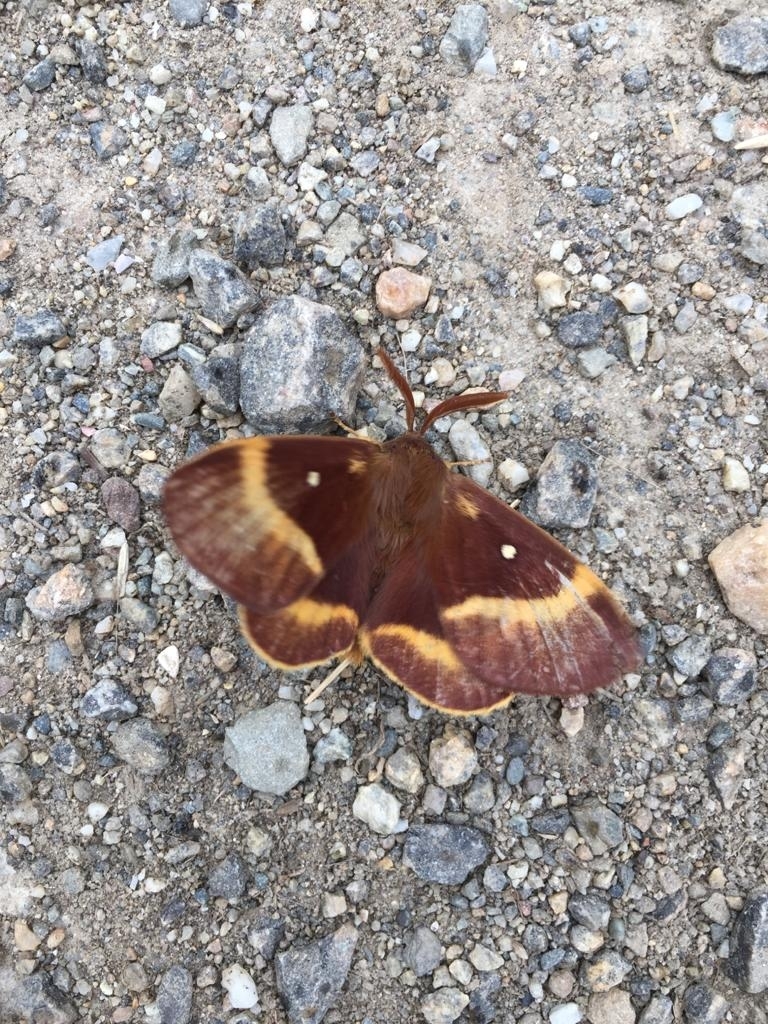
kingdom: Animalia
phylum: Arthropoda
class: Insecta
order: Lepidoptera
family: Lasiocampidae
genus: Lasiocampa
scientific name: Lasiocampa quercus
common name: Oak eggar
